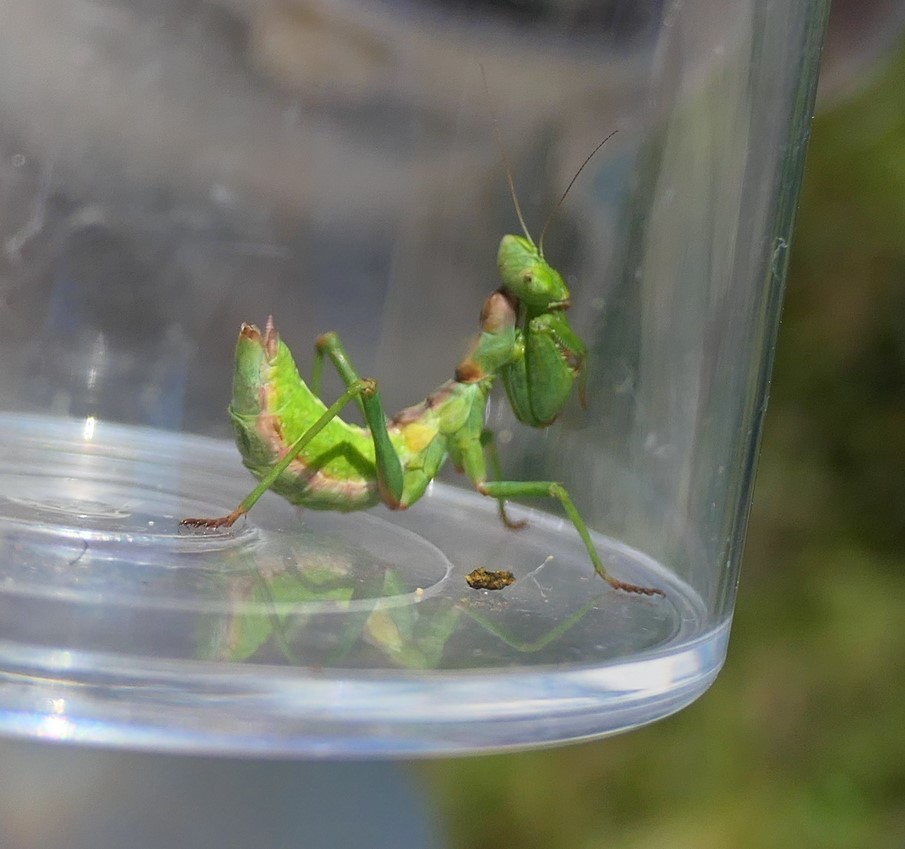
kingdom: Animalia
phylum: Arthropoda
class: Insecta
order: Mantodea
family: Amelidae
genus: Ameles
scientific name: Ameles spallanzania
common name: European dwarf mantis
